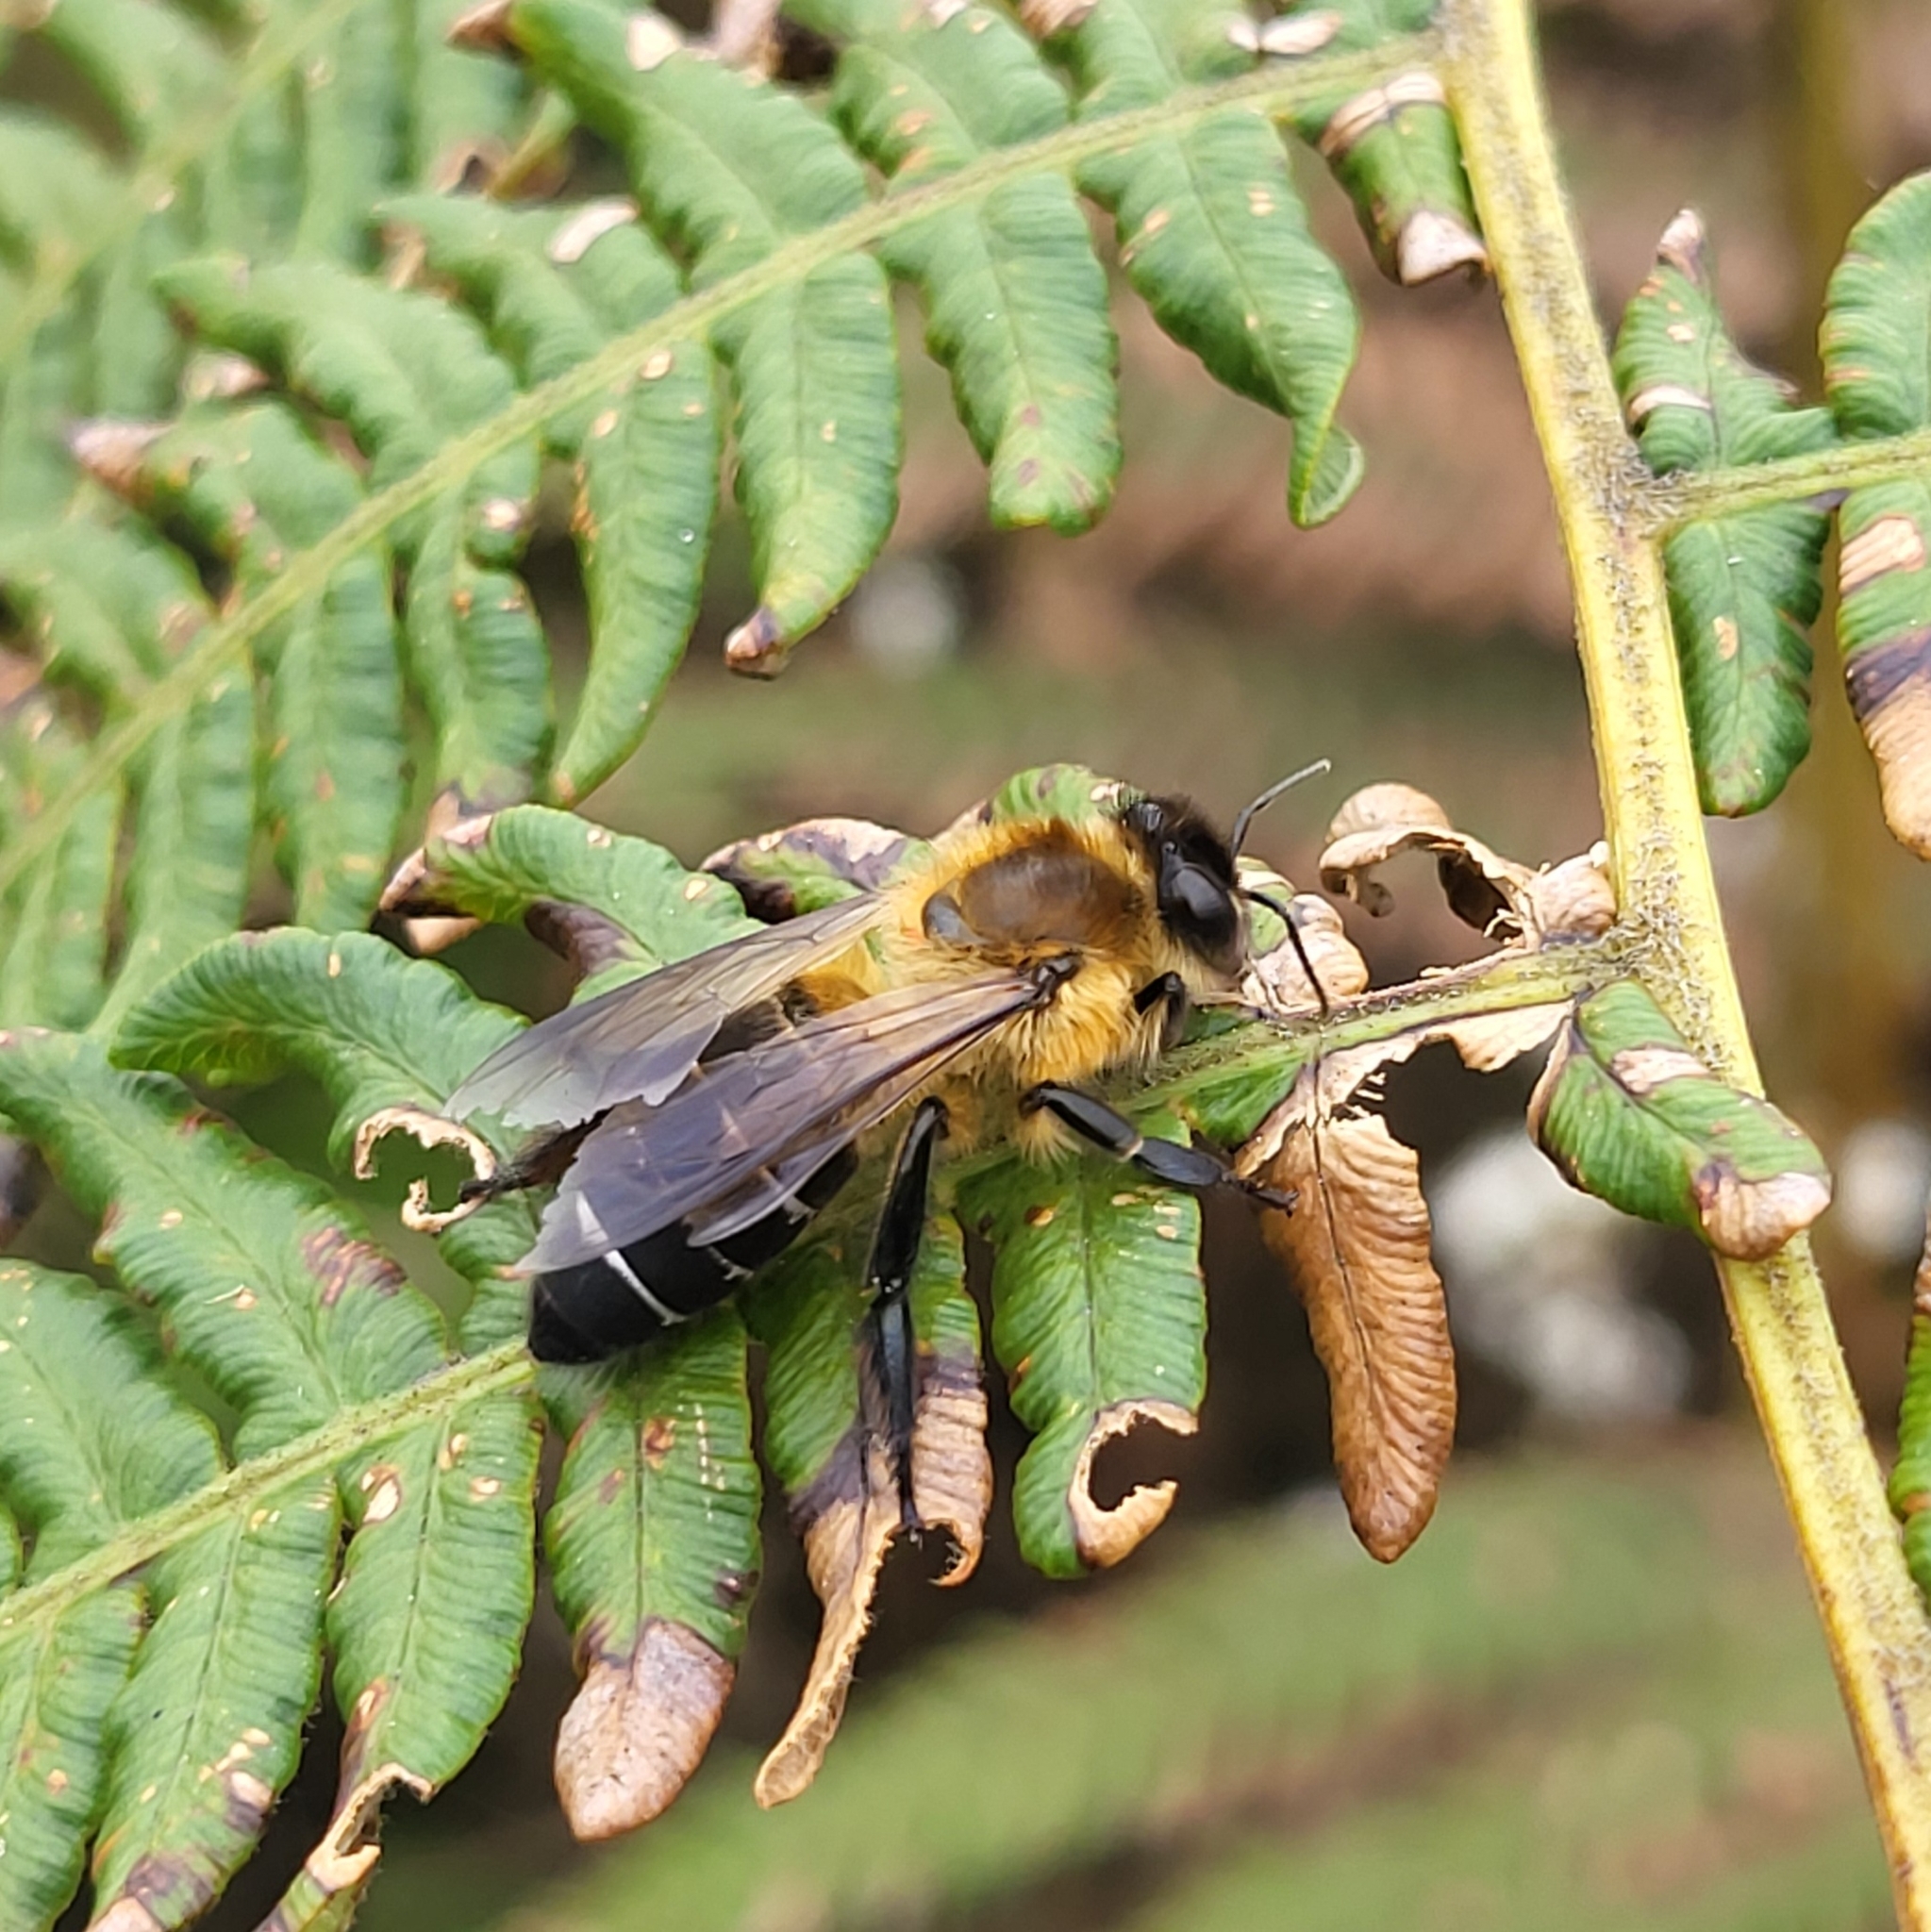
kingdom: Animalia
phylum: Arthropoda
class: Insecta
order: Hymenoptera
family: Apidae
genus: Apis
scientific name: Apis laboriosa
